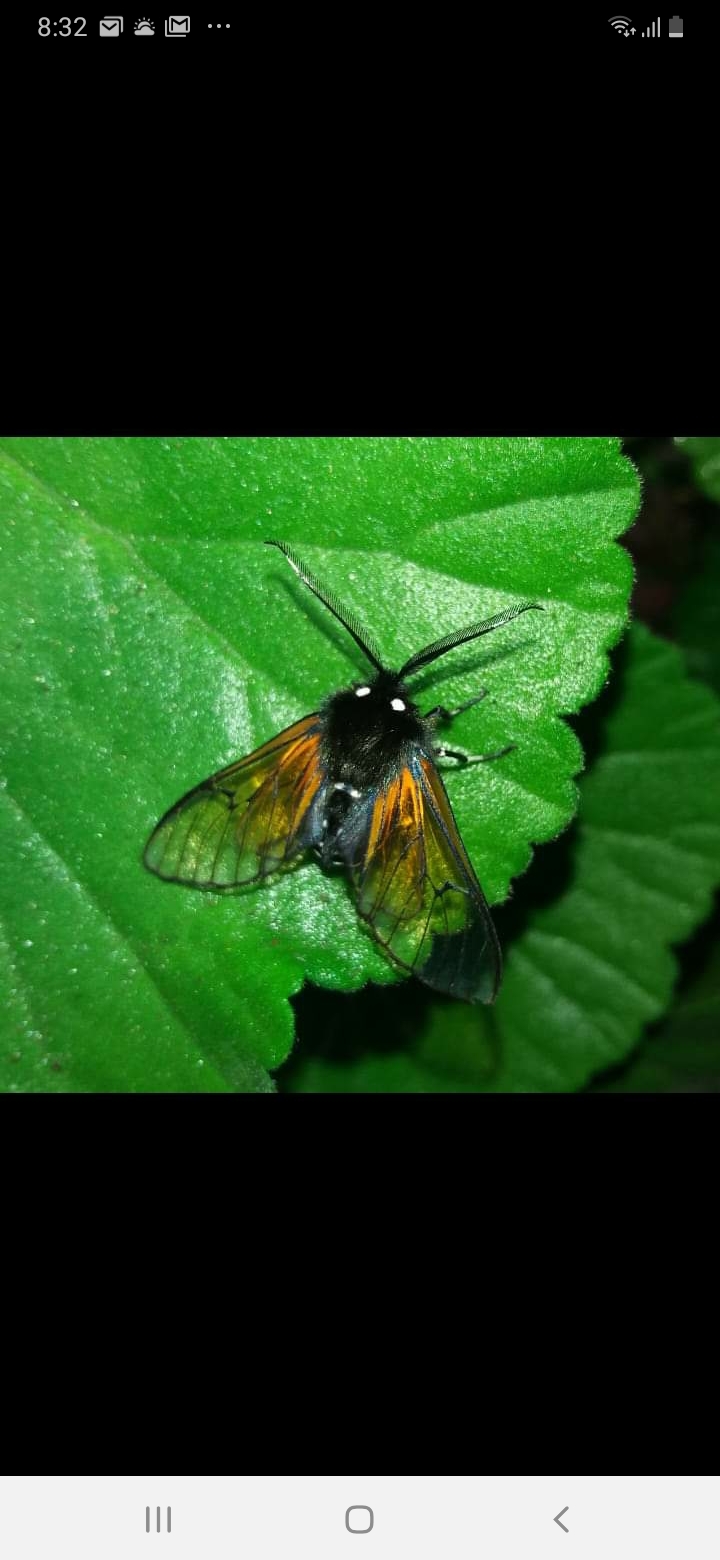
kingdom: Animalia
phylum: Arthropoda
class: Insecta
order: Lepidoptera
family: Erebidae
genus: Dasysphinx
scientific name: Dasysphinx volatilis
